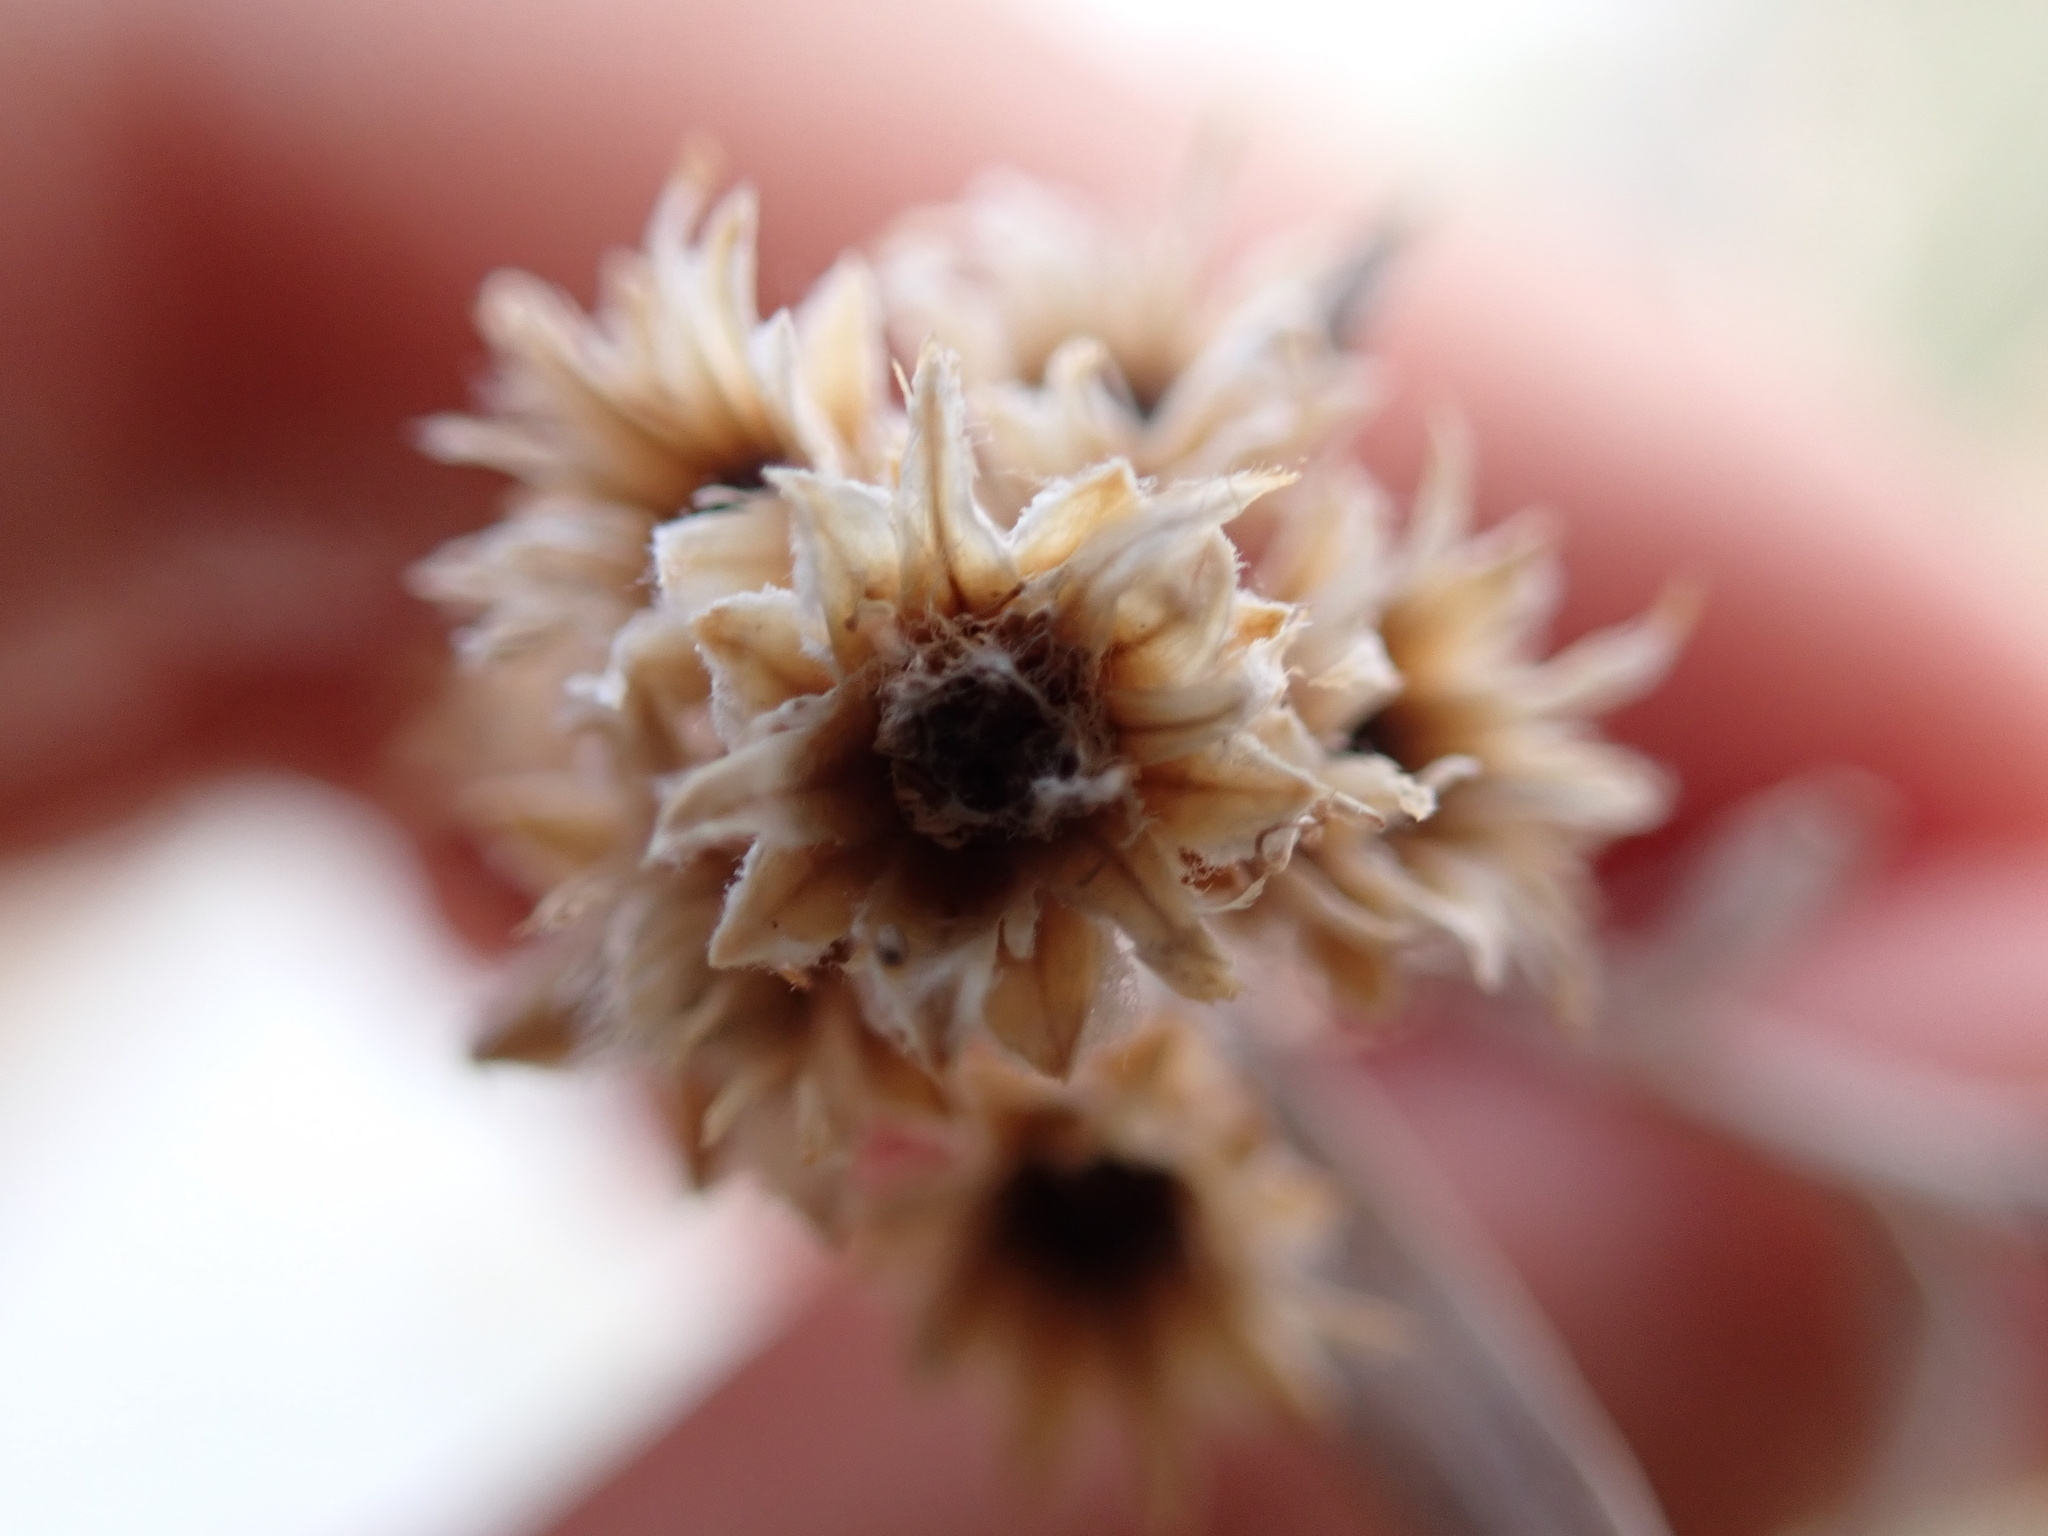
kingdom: Plantae
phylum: Tracheophyta
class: Magnoliopsida
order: Asterales
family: Asteraceae
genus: Pluchea
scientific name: Pluchea sericea
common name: Arrow-weed
